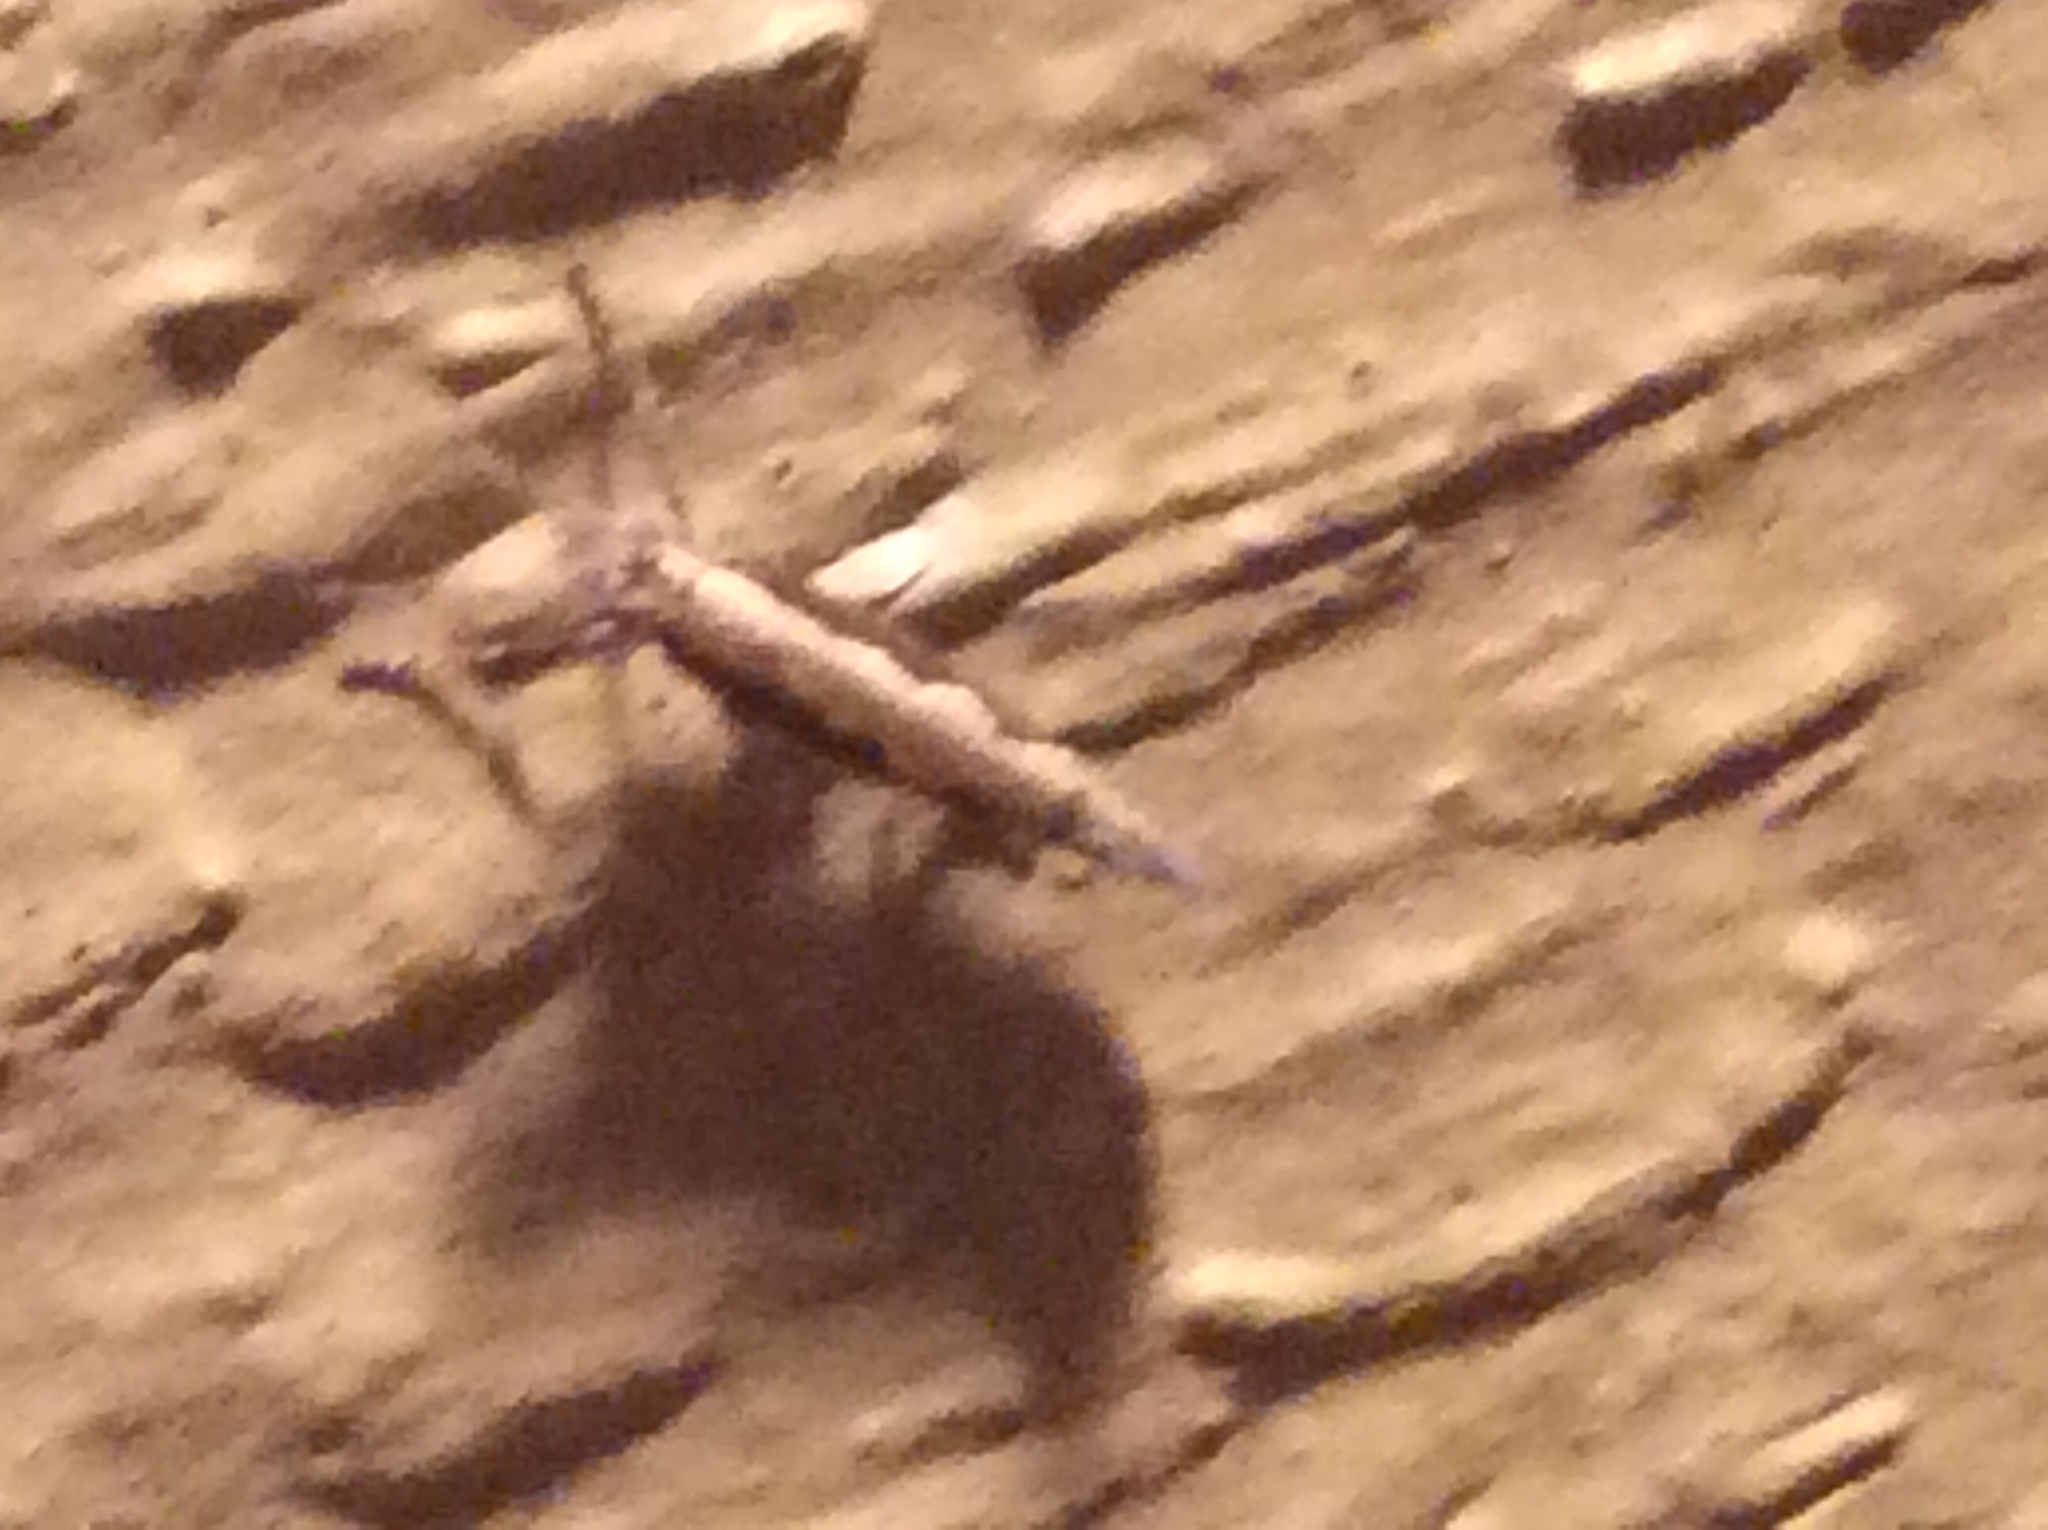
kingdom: Animalia
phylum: Arthropoda
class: Insecta
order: Lepidoptera
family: Plutellidae
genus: Plutella
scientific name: Plutella xylostella
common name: Diamond-back moth
